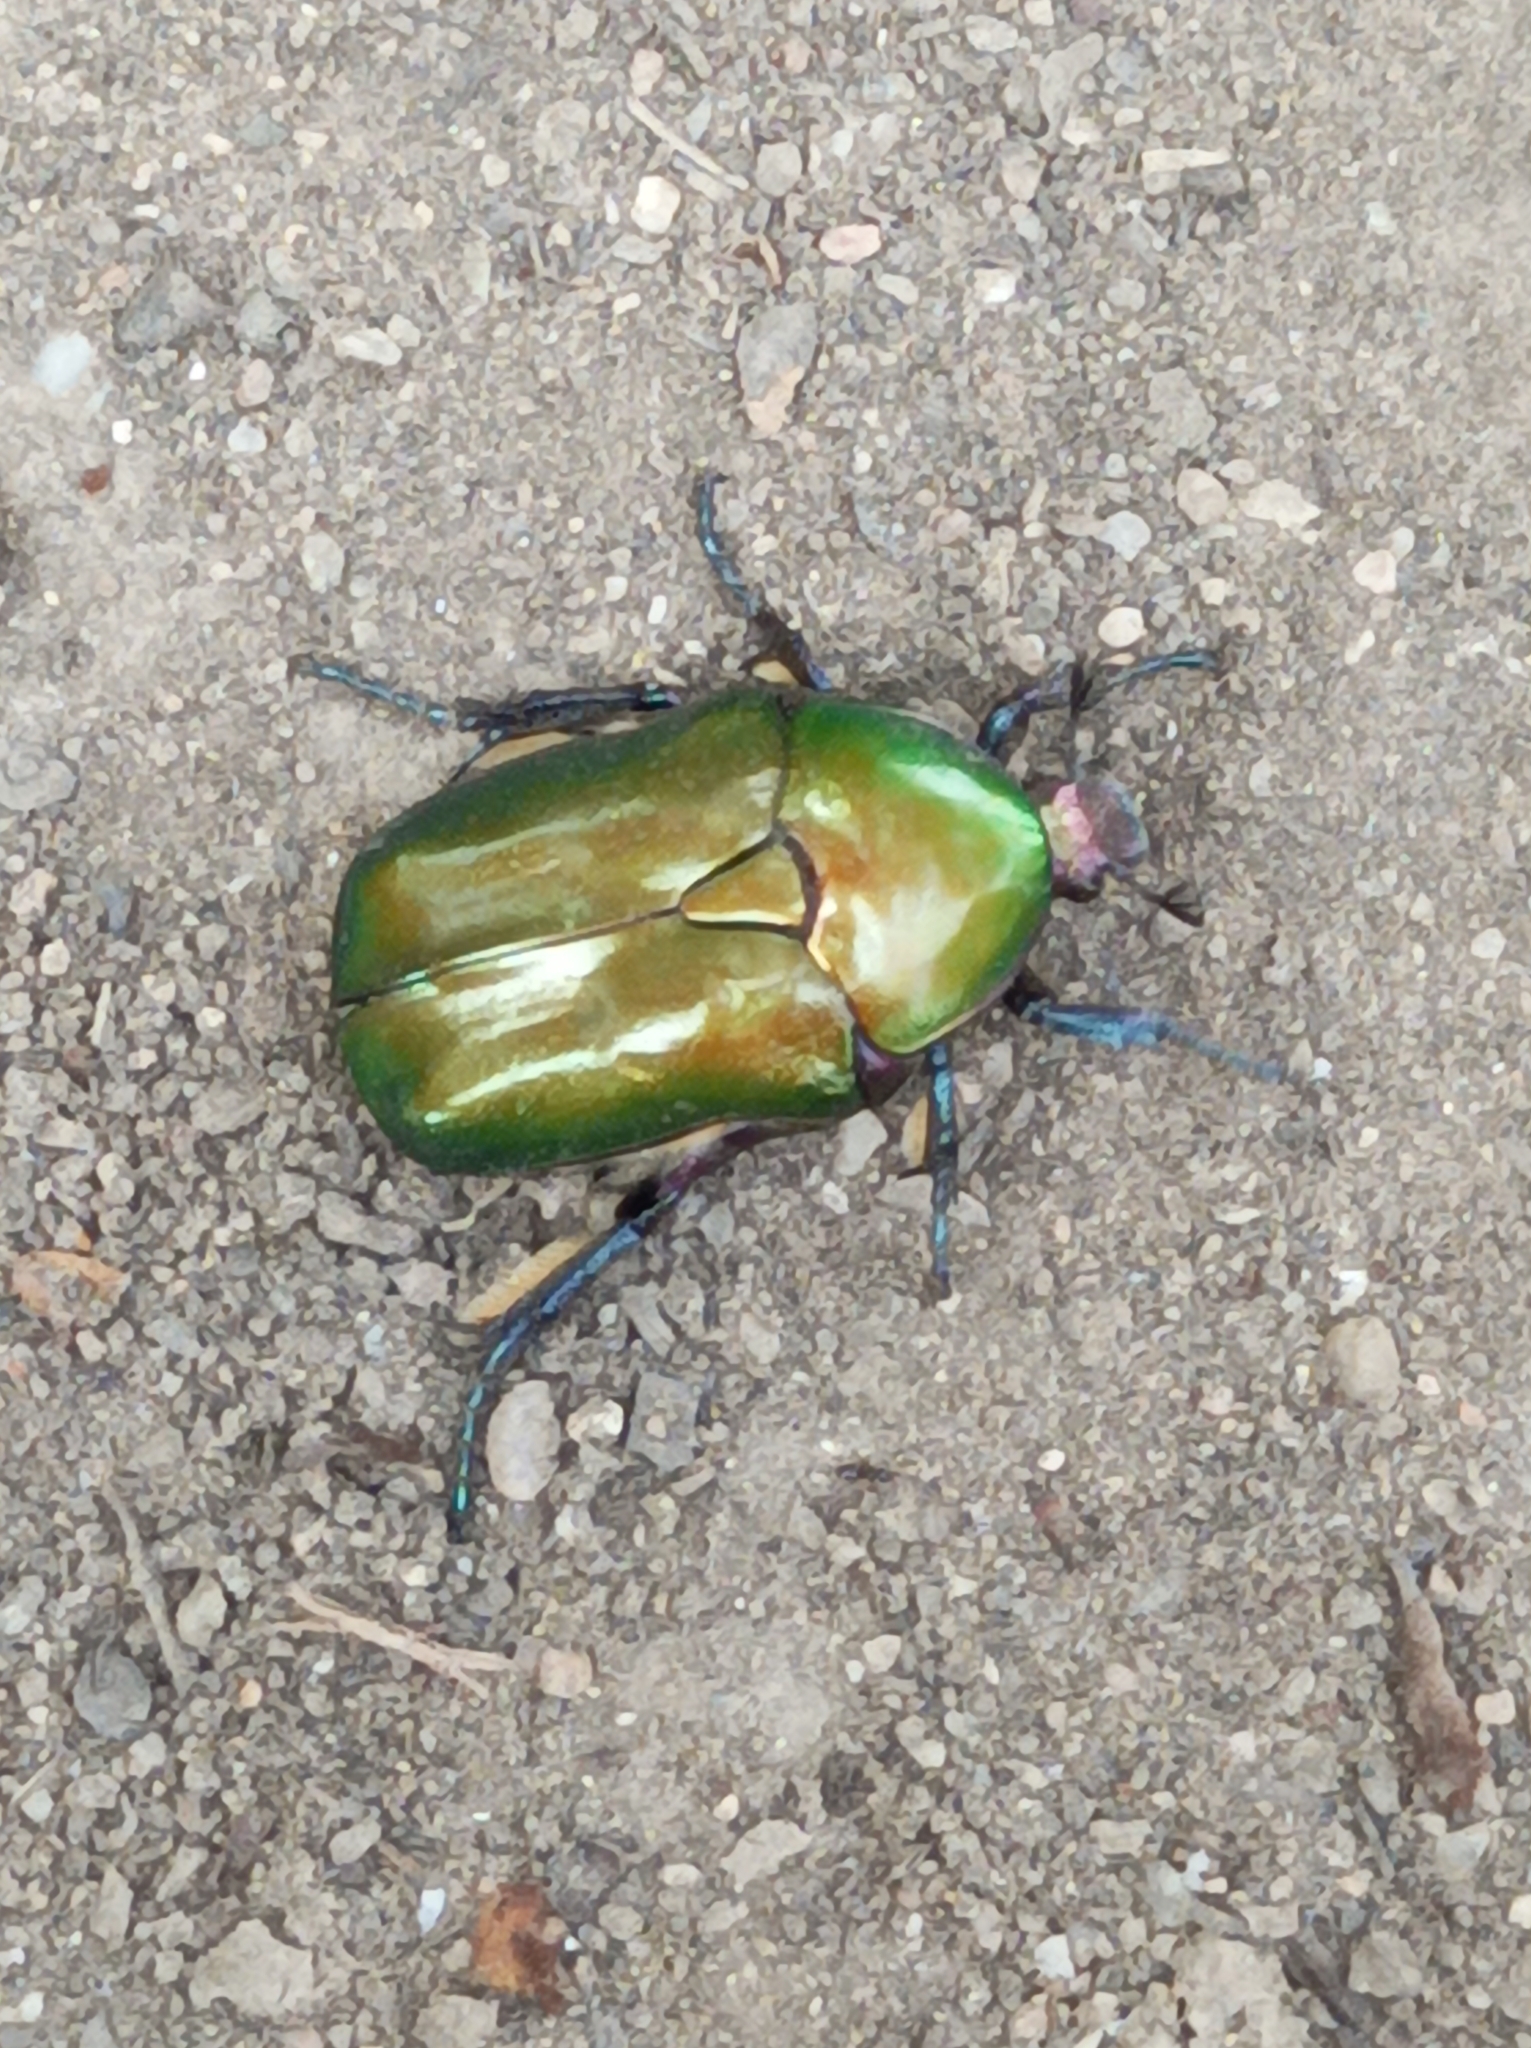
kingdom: Animalia
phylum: Arthropoda
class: Insecta
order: Coleoptera
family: Scarabaeidae
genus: Protaetia
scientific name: Protaetia cuprea
